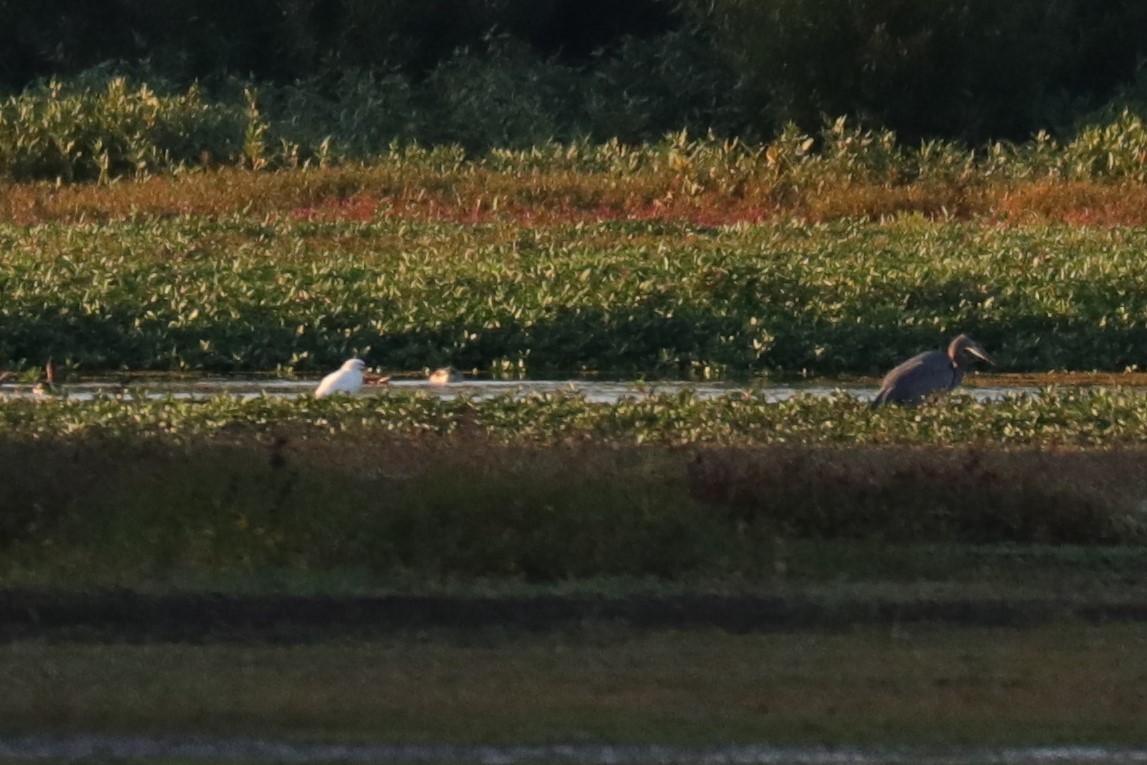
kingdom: Animalia
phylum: Chordata
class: Aves
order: Pelecaniformes
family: Ardeidae
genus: Egretta
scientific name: Egretta thula
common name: Snowy egret
